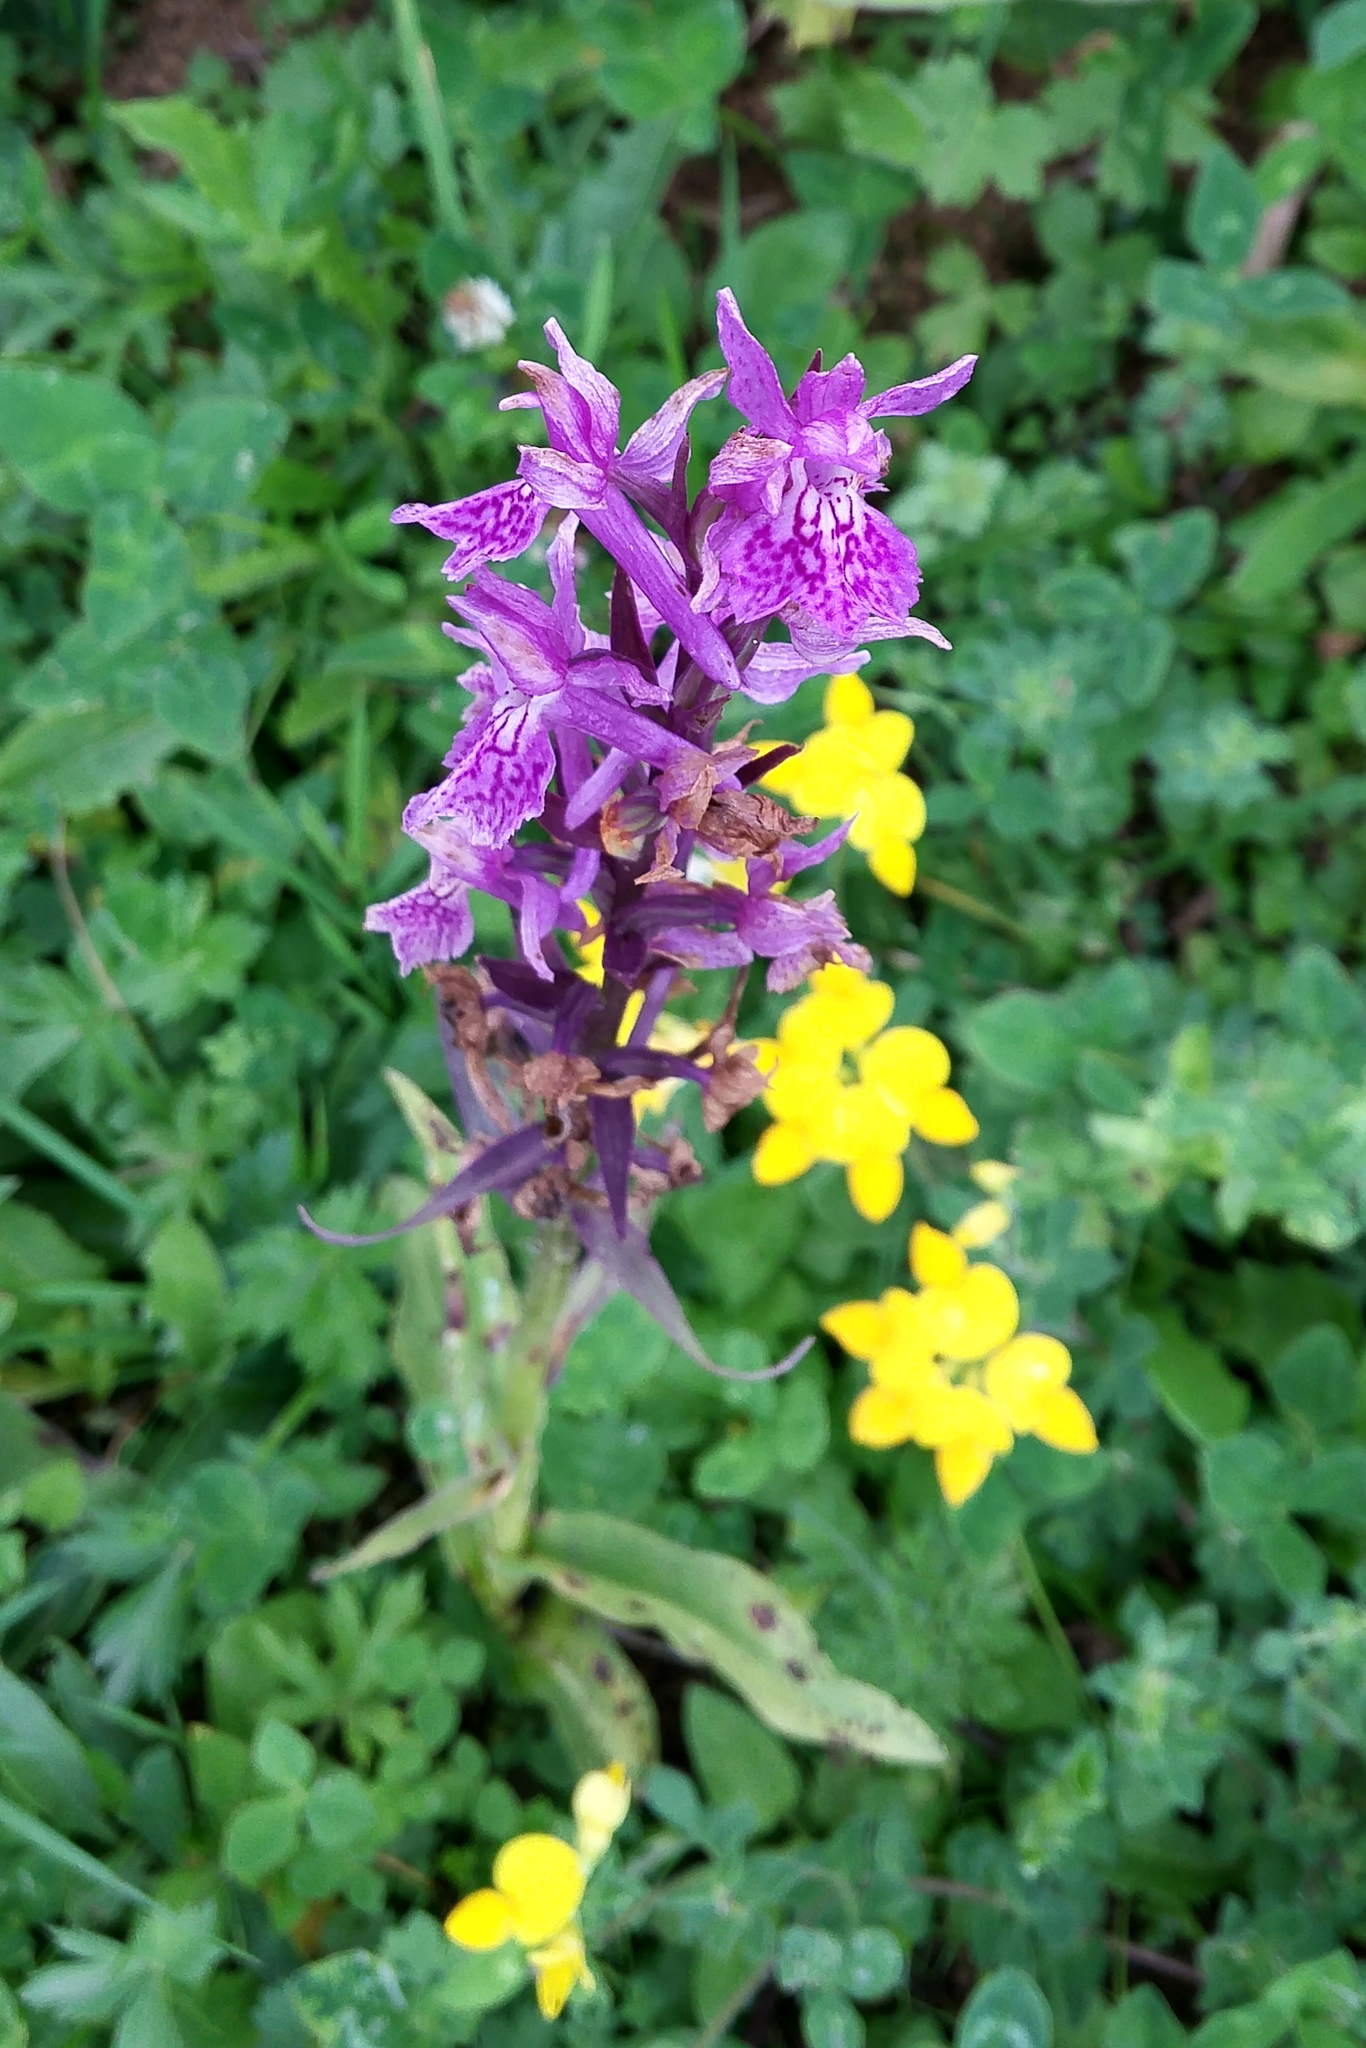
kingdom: Plantae
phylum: Tracheophyta
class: Liliopsida
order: Asparagales
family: Orchidaceae
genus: Dactylorhiza
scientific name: Dactylorhiza urvilleana
